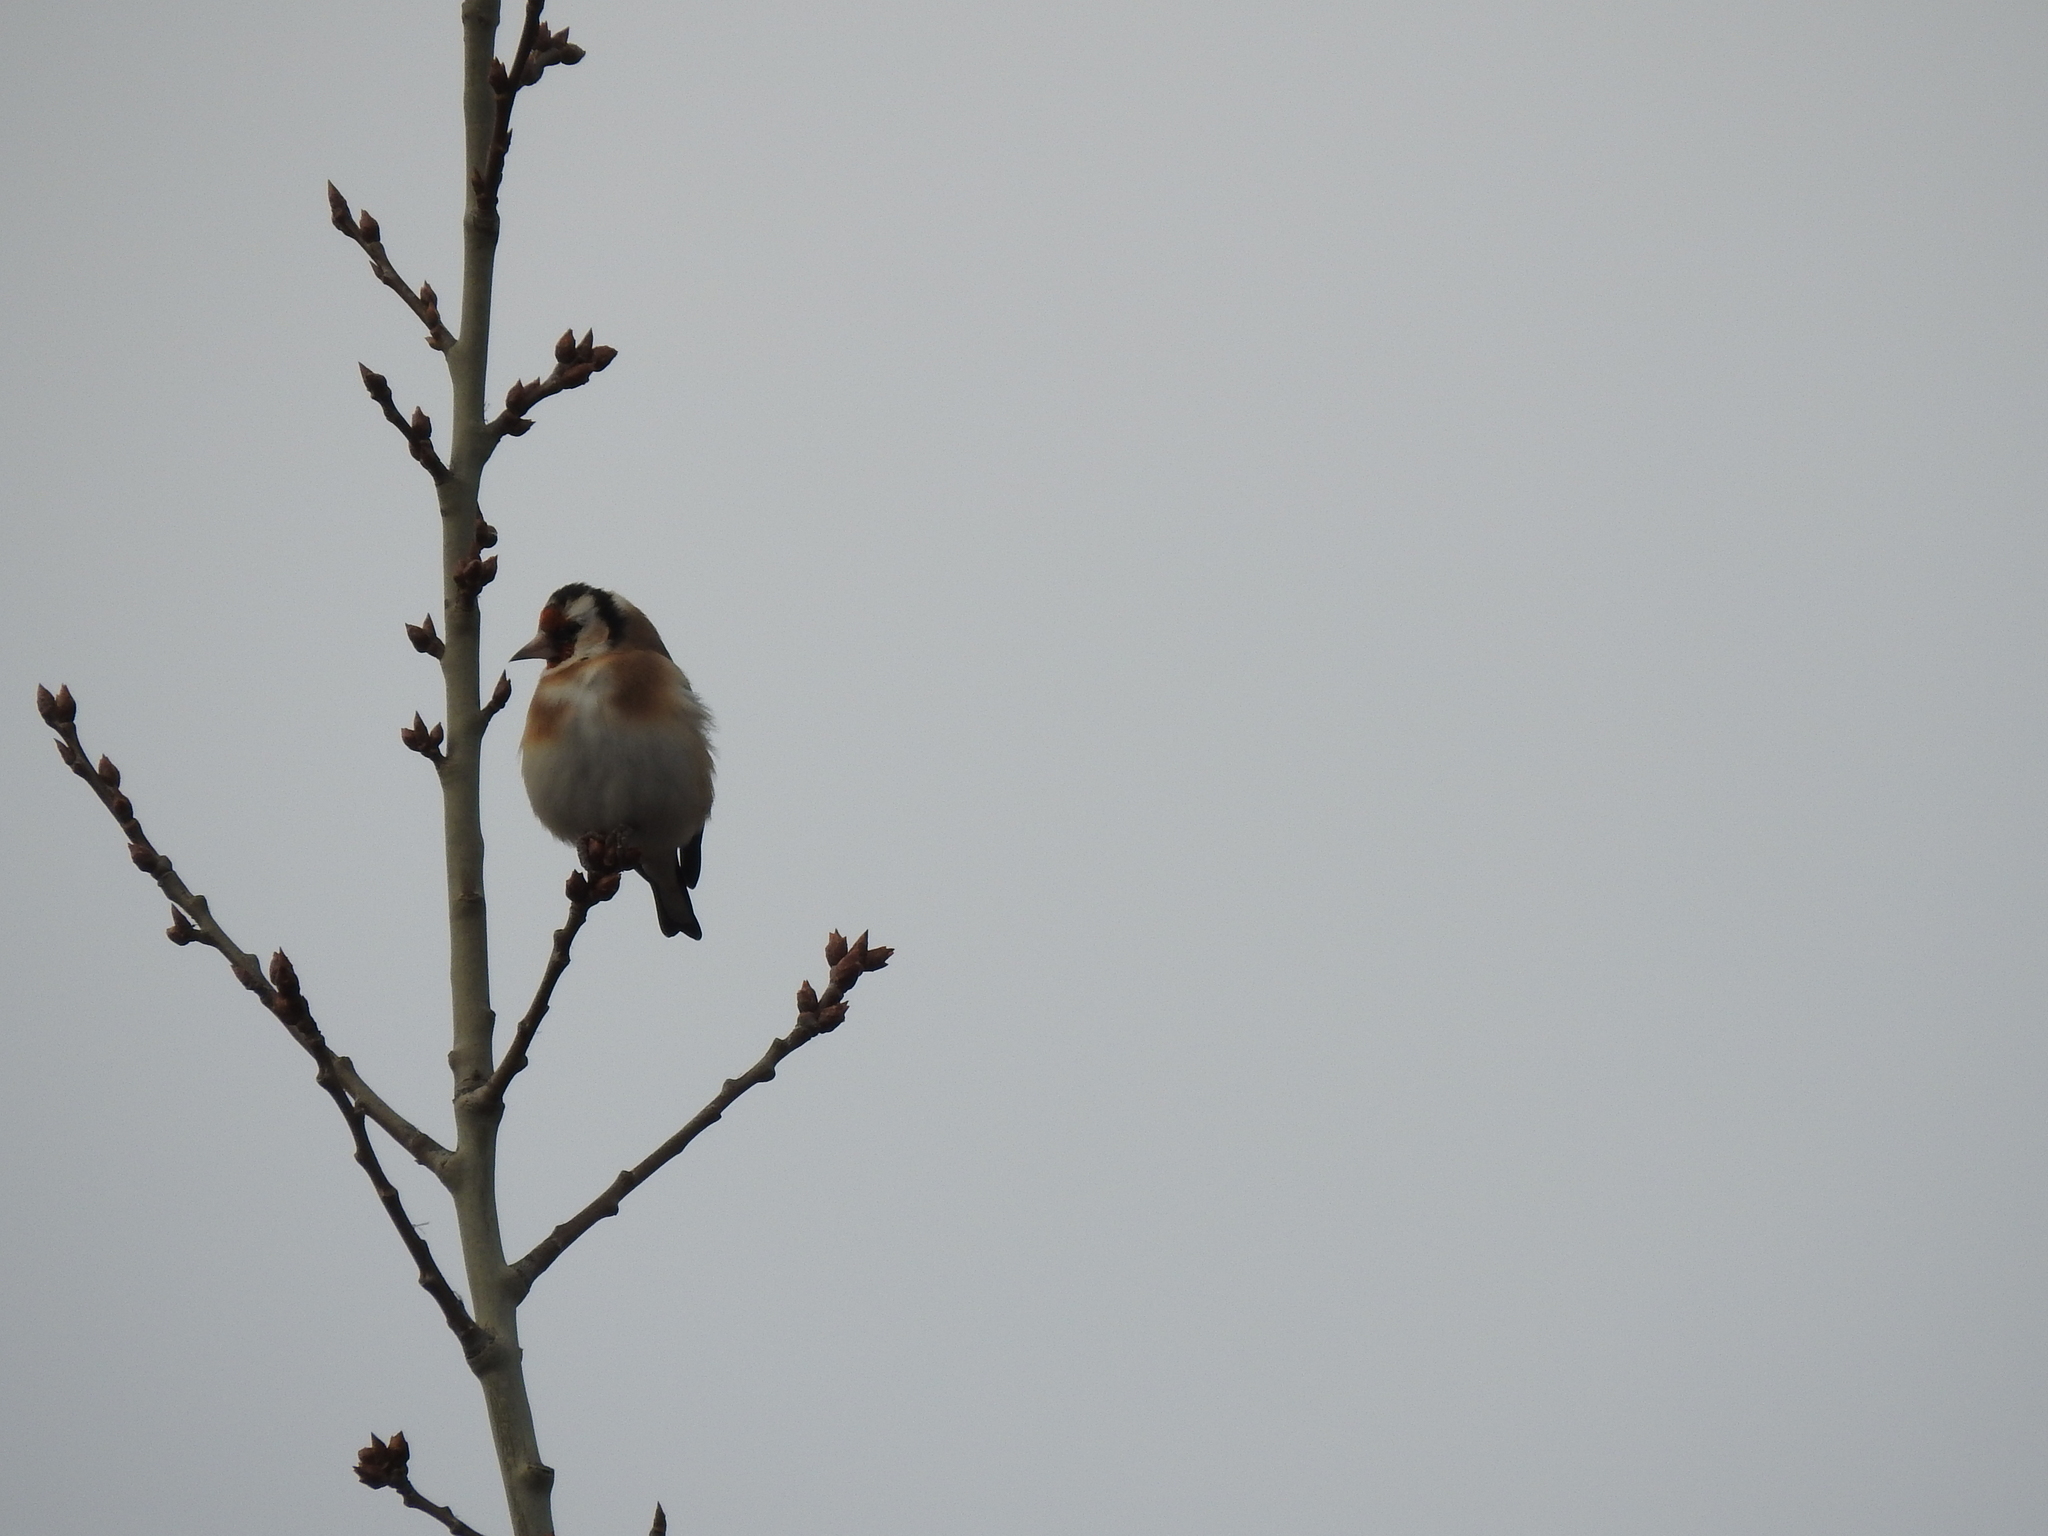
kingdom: Animalia
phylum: Chordata
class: Aves
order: Passeriformes
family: Fringillidae
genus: Carduelis
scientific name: Carduelis carduelis
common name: European goldfinch
